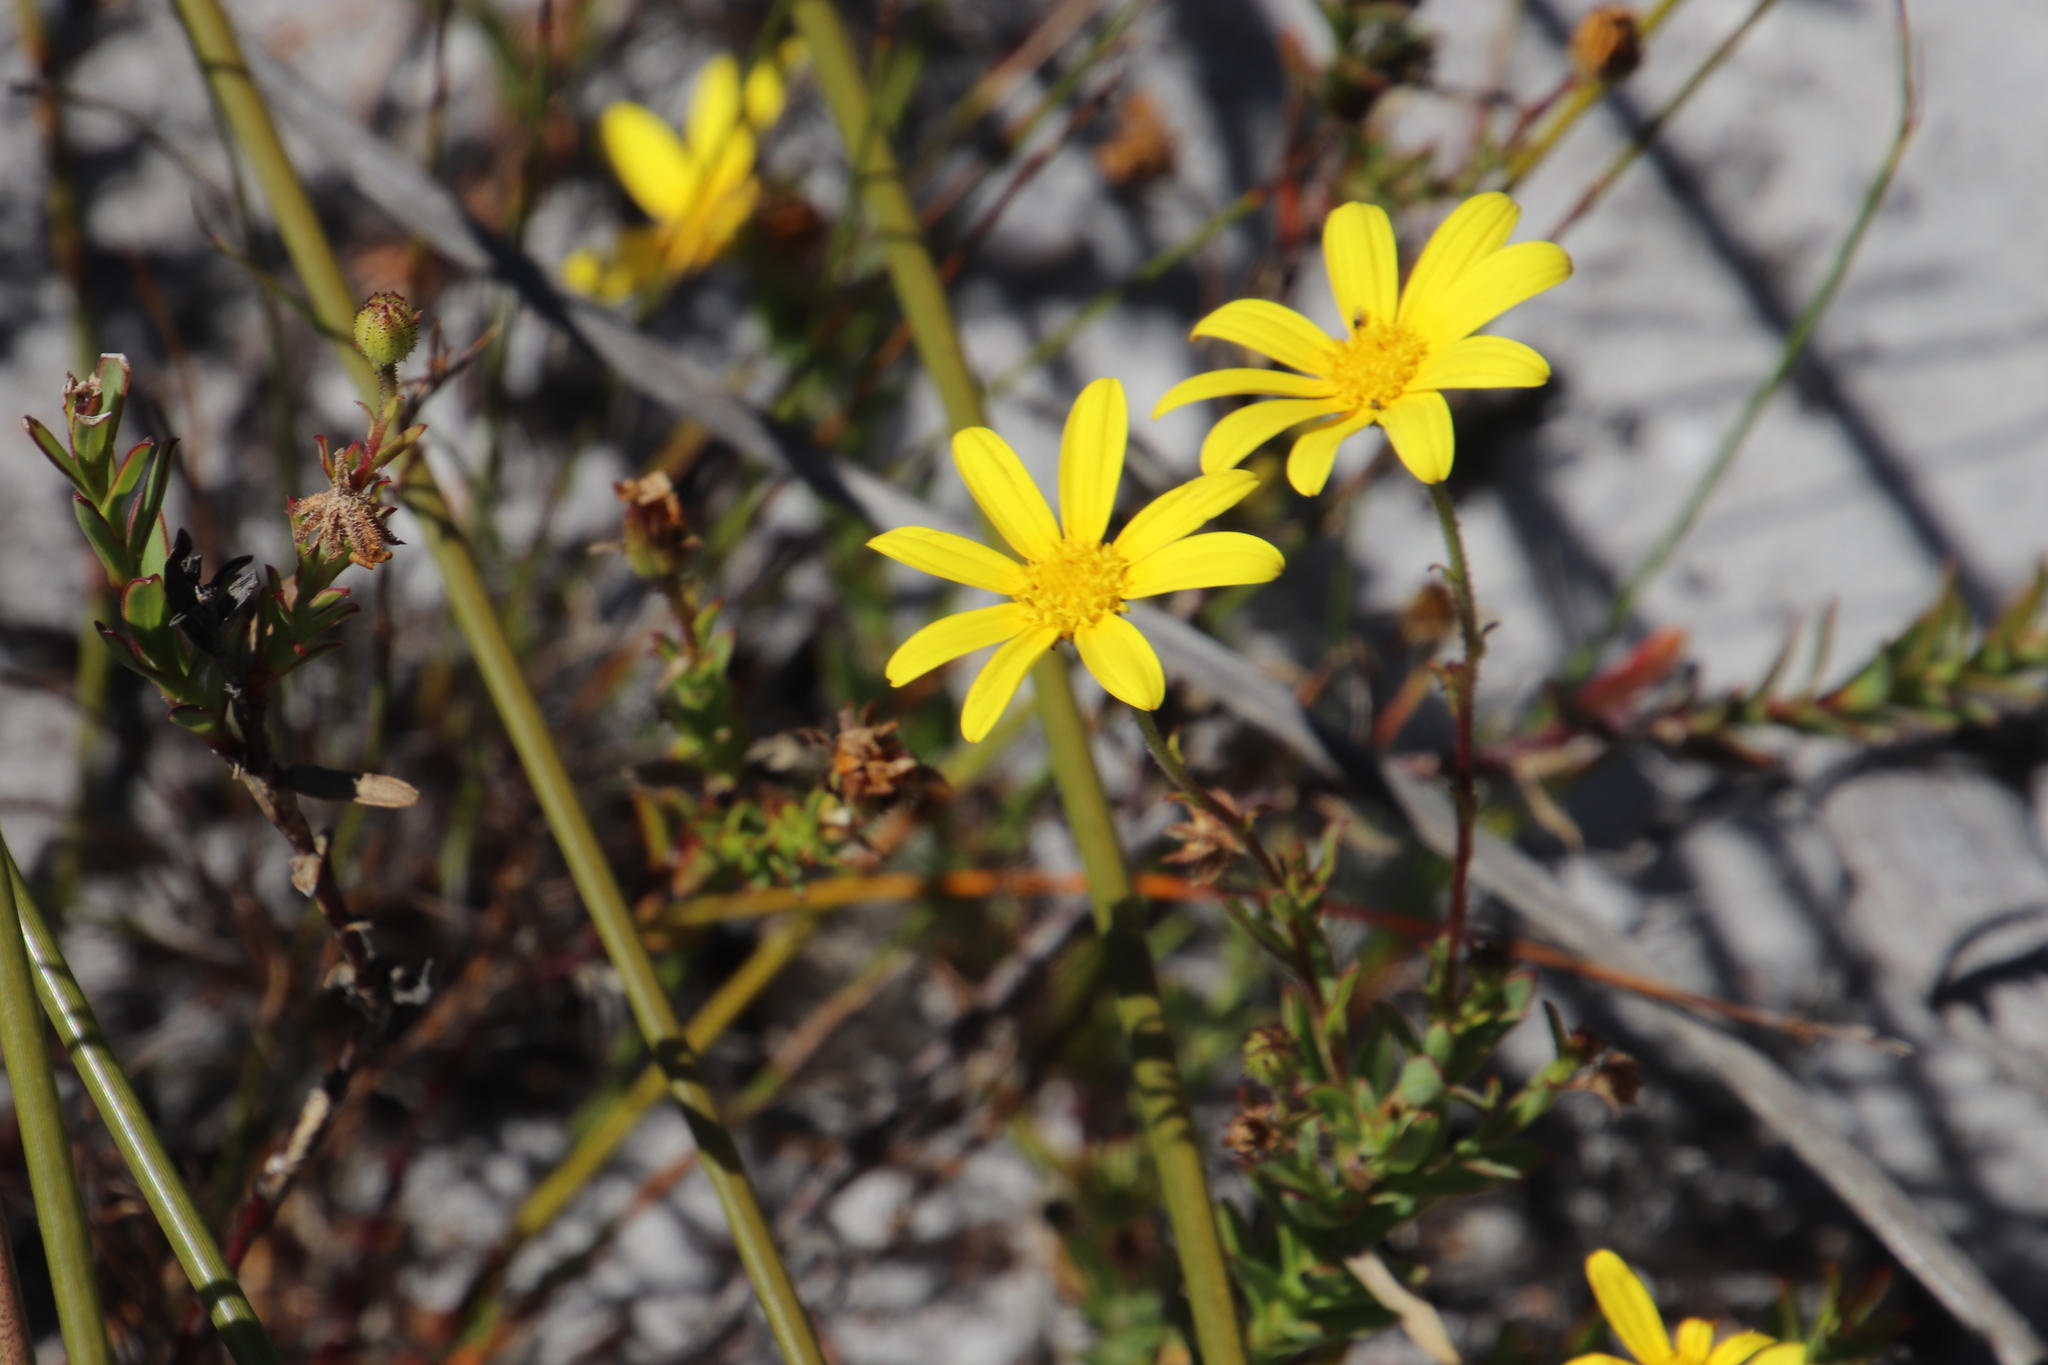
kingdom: Plantae
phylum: Tracheophyta
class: Magnoliopsida
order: Asterales
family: Asteraceae
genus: Osteospermum
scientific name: Osteospermum polygaloides
